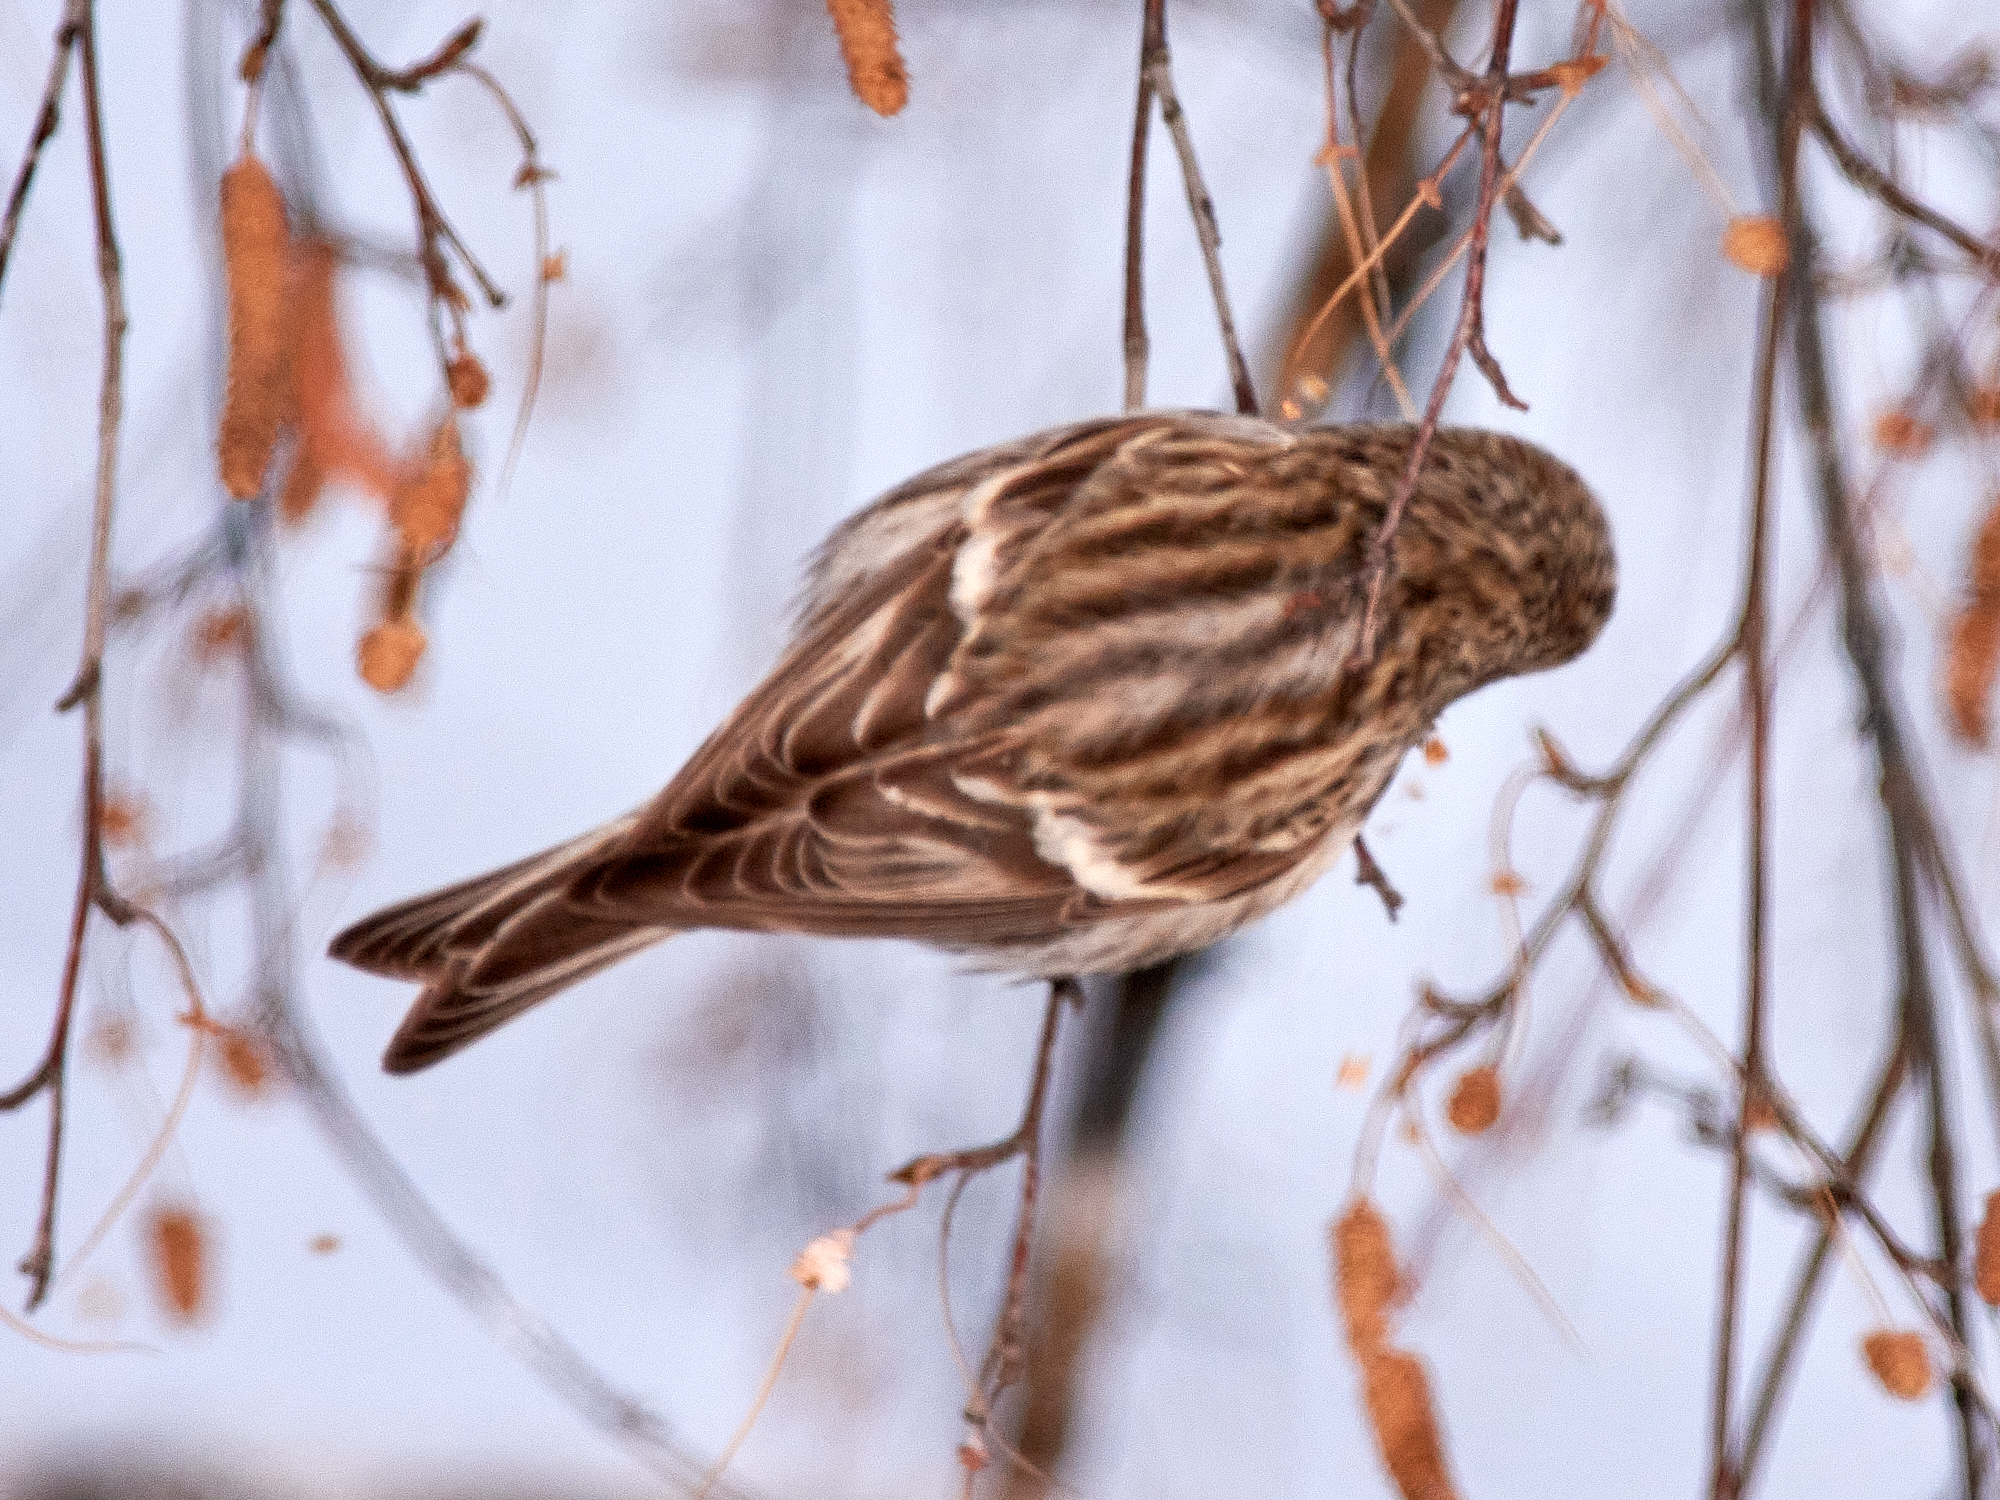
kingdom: Animalia
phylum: Chordata
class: Aves
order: Passeriformes
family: Fringillidae
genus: Acanthis
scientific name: Acanthis flammea
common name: Common redpoll
